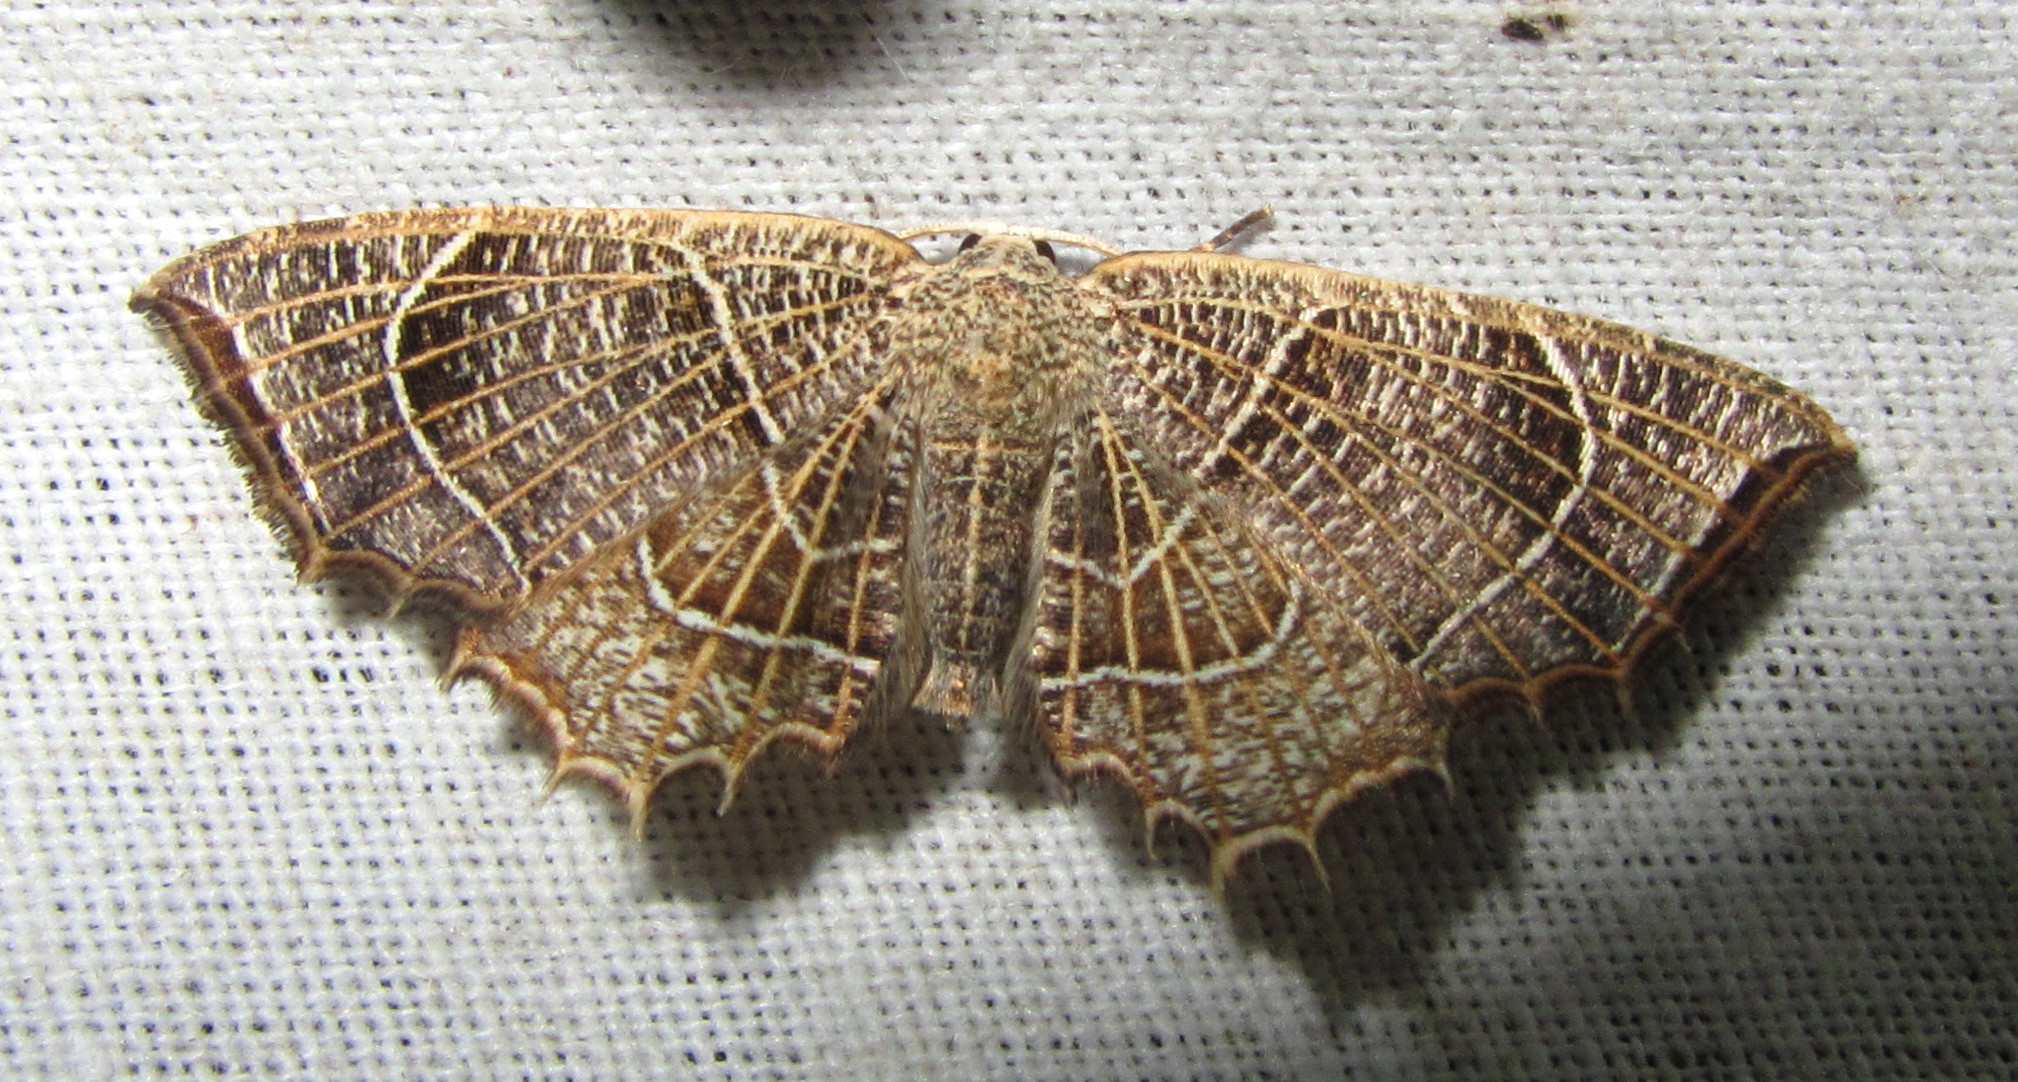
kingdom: Animalia
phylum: Arthropoda
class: Insecta
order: Lepidoptera
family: Uraniidae
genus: Epiplema
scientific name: Epiplema
